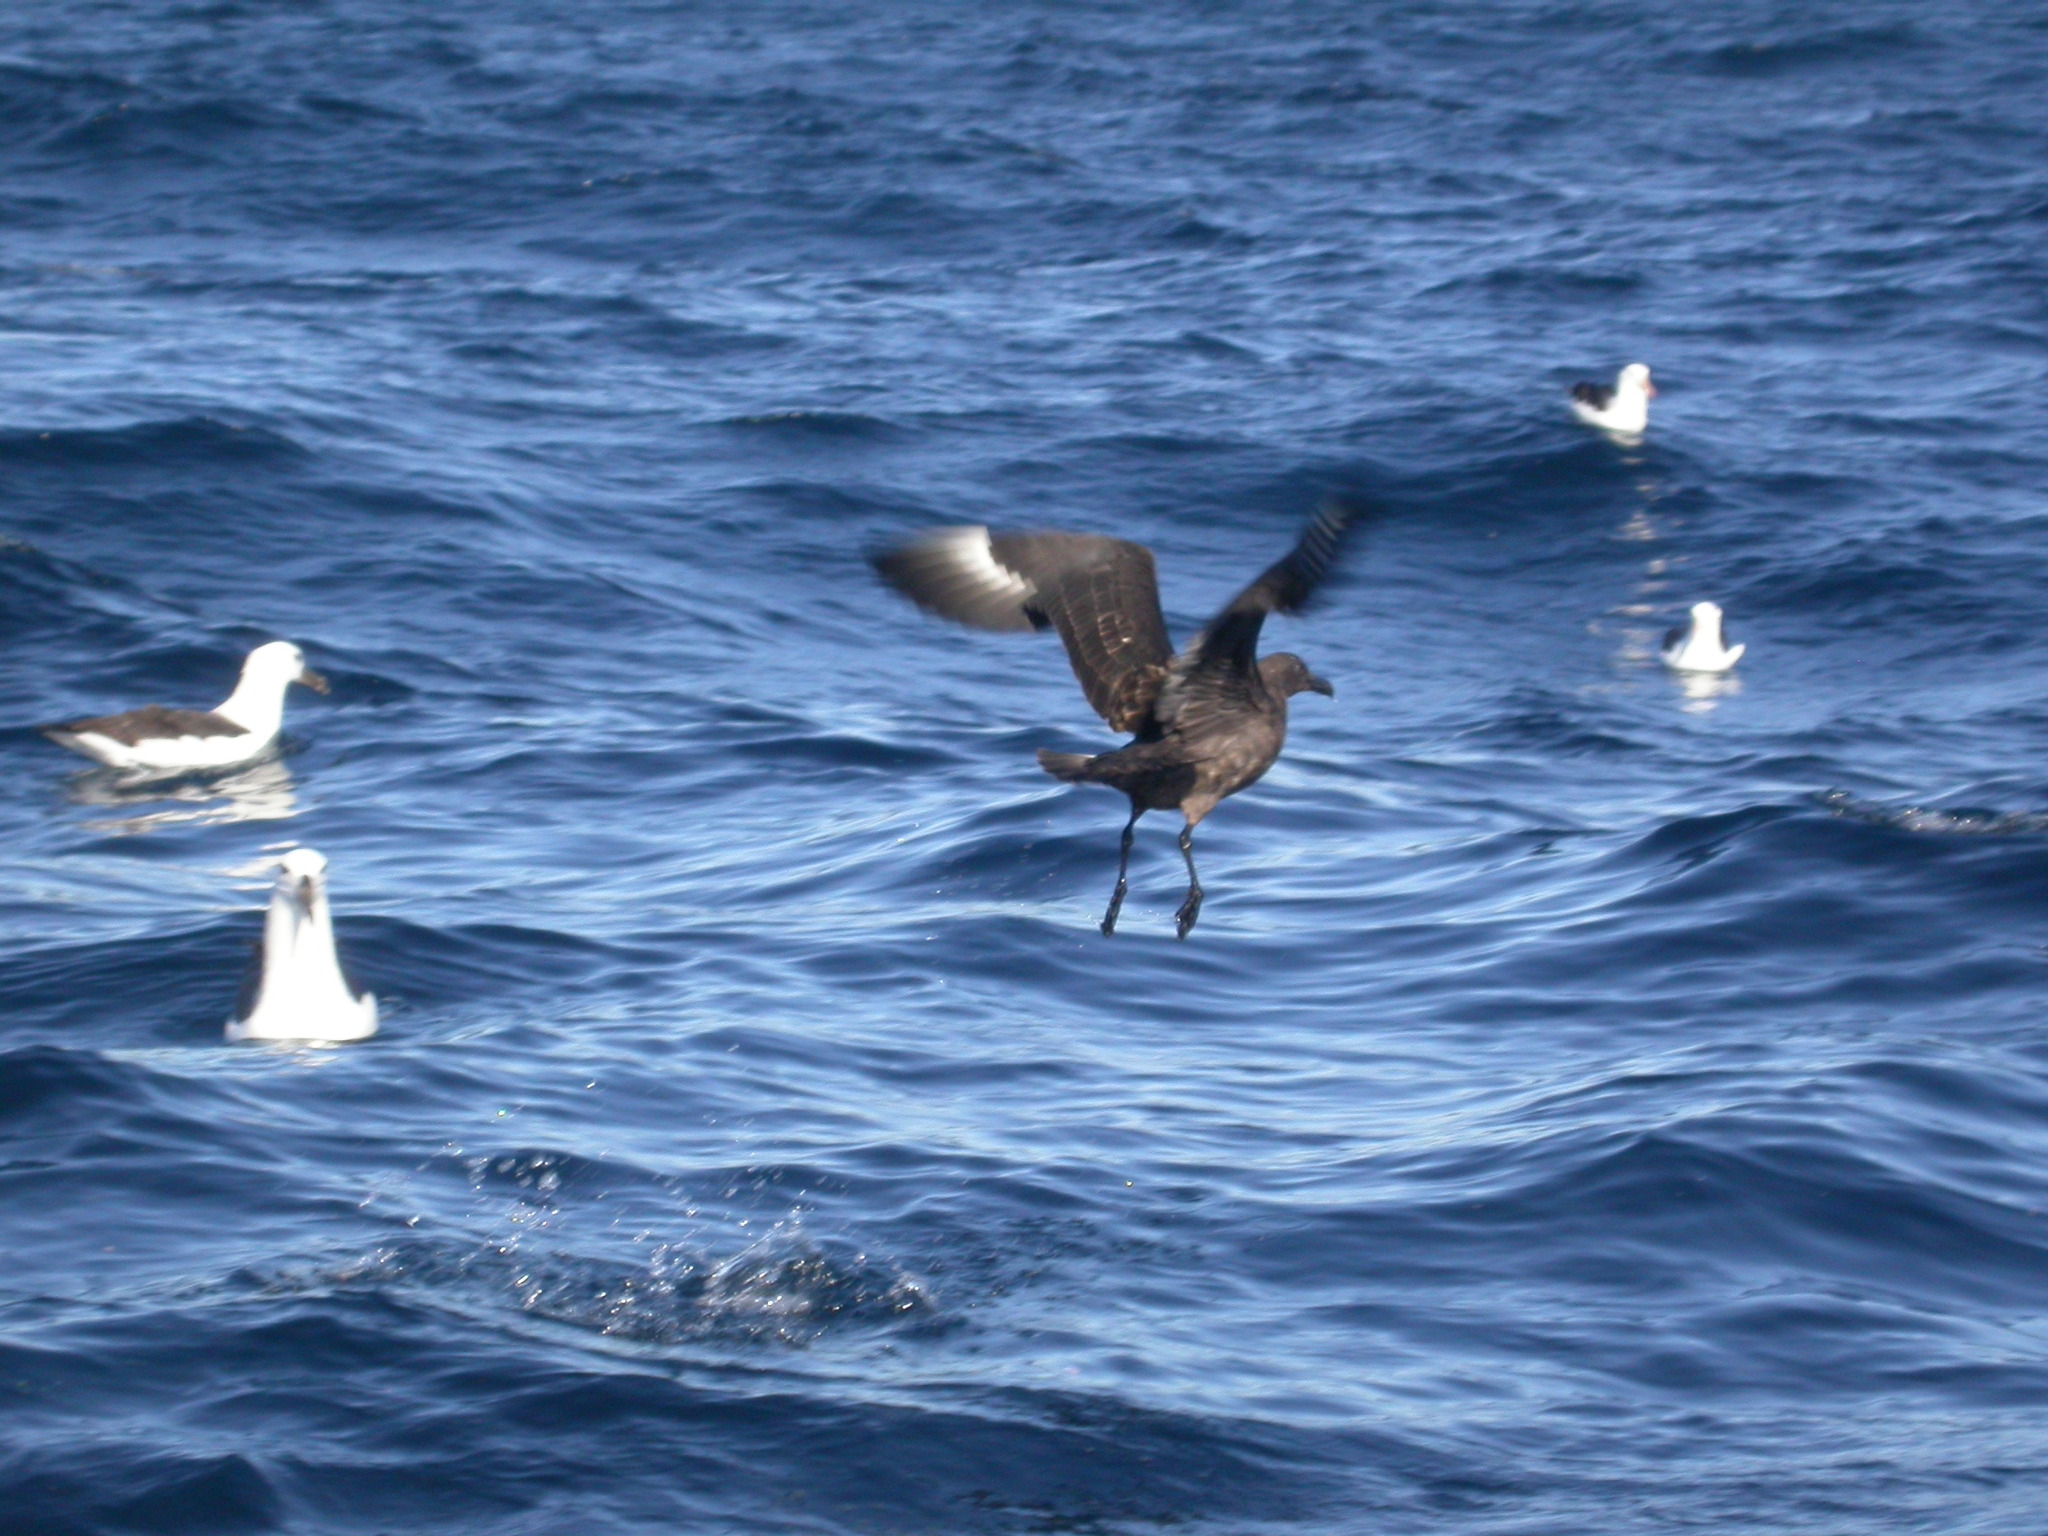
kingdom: Animalia
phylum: Chordata
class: Aves
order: Charadriiformes
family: Stercorariidae
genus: Stercorarius
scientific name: Stercorarius antarcticus
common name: Brown skua
